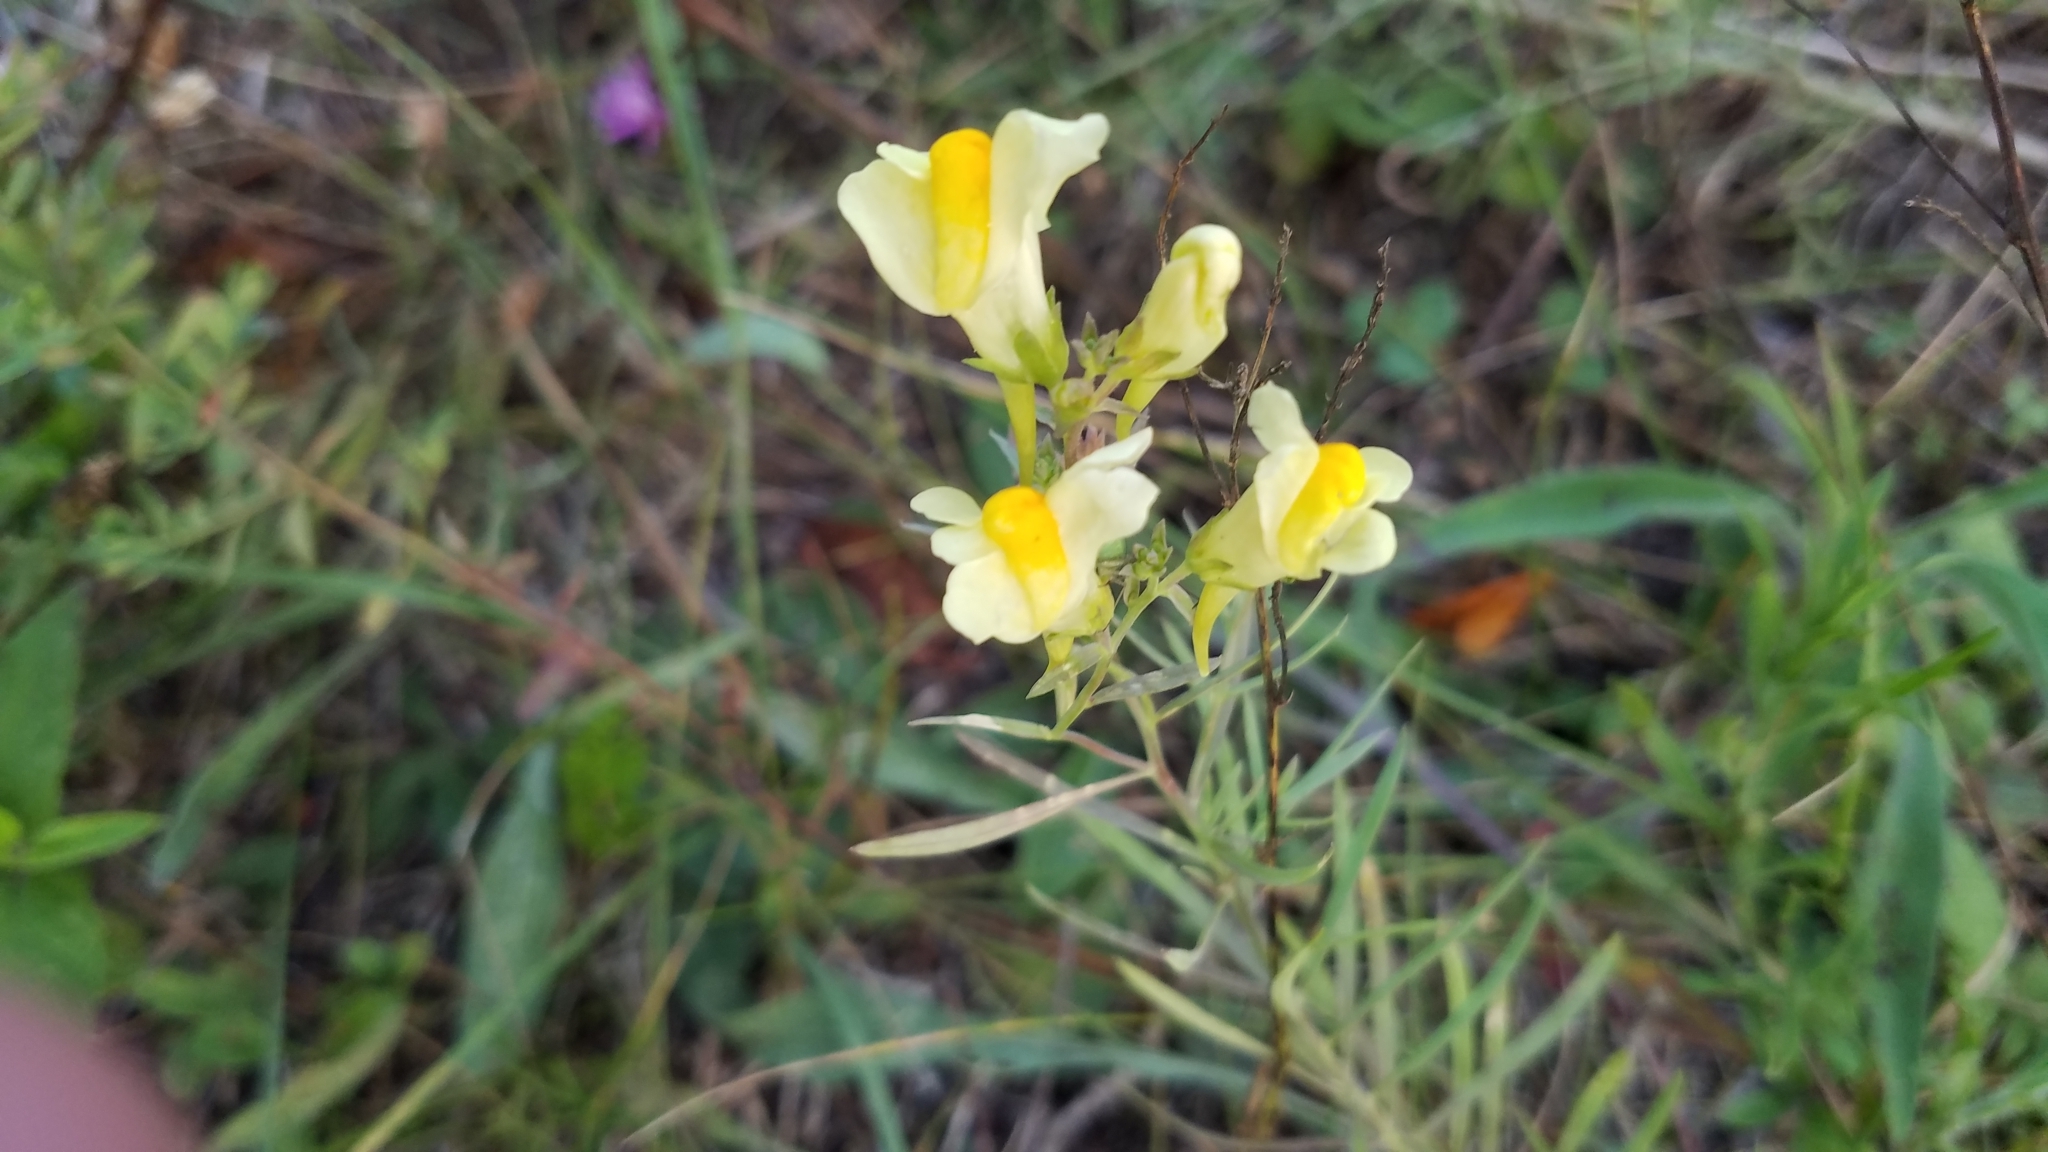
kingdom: Plantae
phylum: Tracheophyta
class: Magnoliopsida
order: Lamiales
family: Plantaginaceae
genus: Linaria
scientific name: Linaria vulgaris
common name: Butter and eggs
